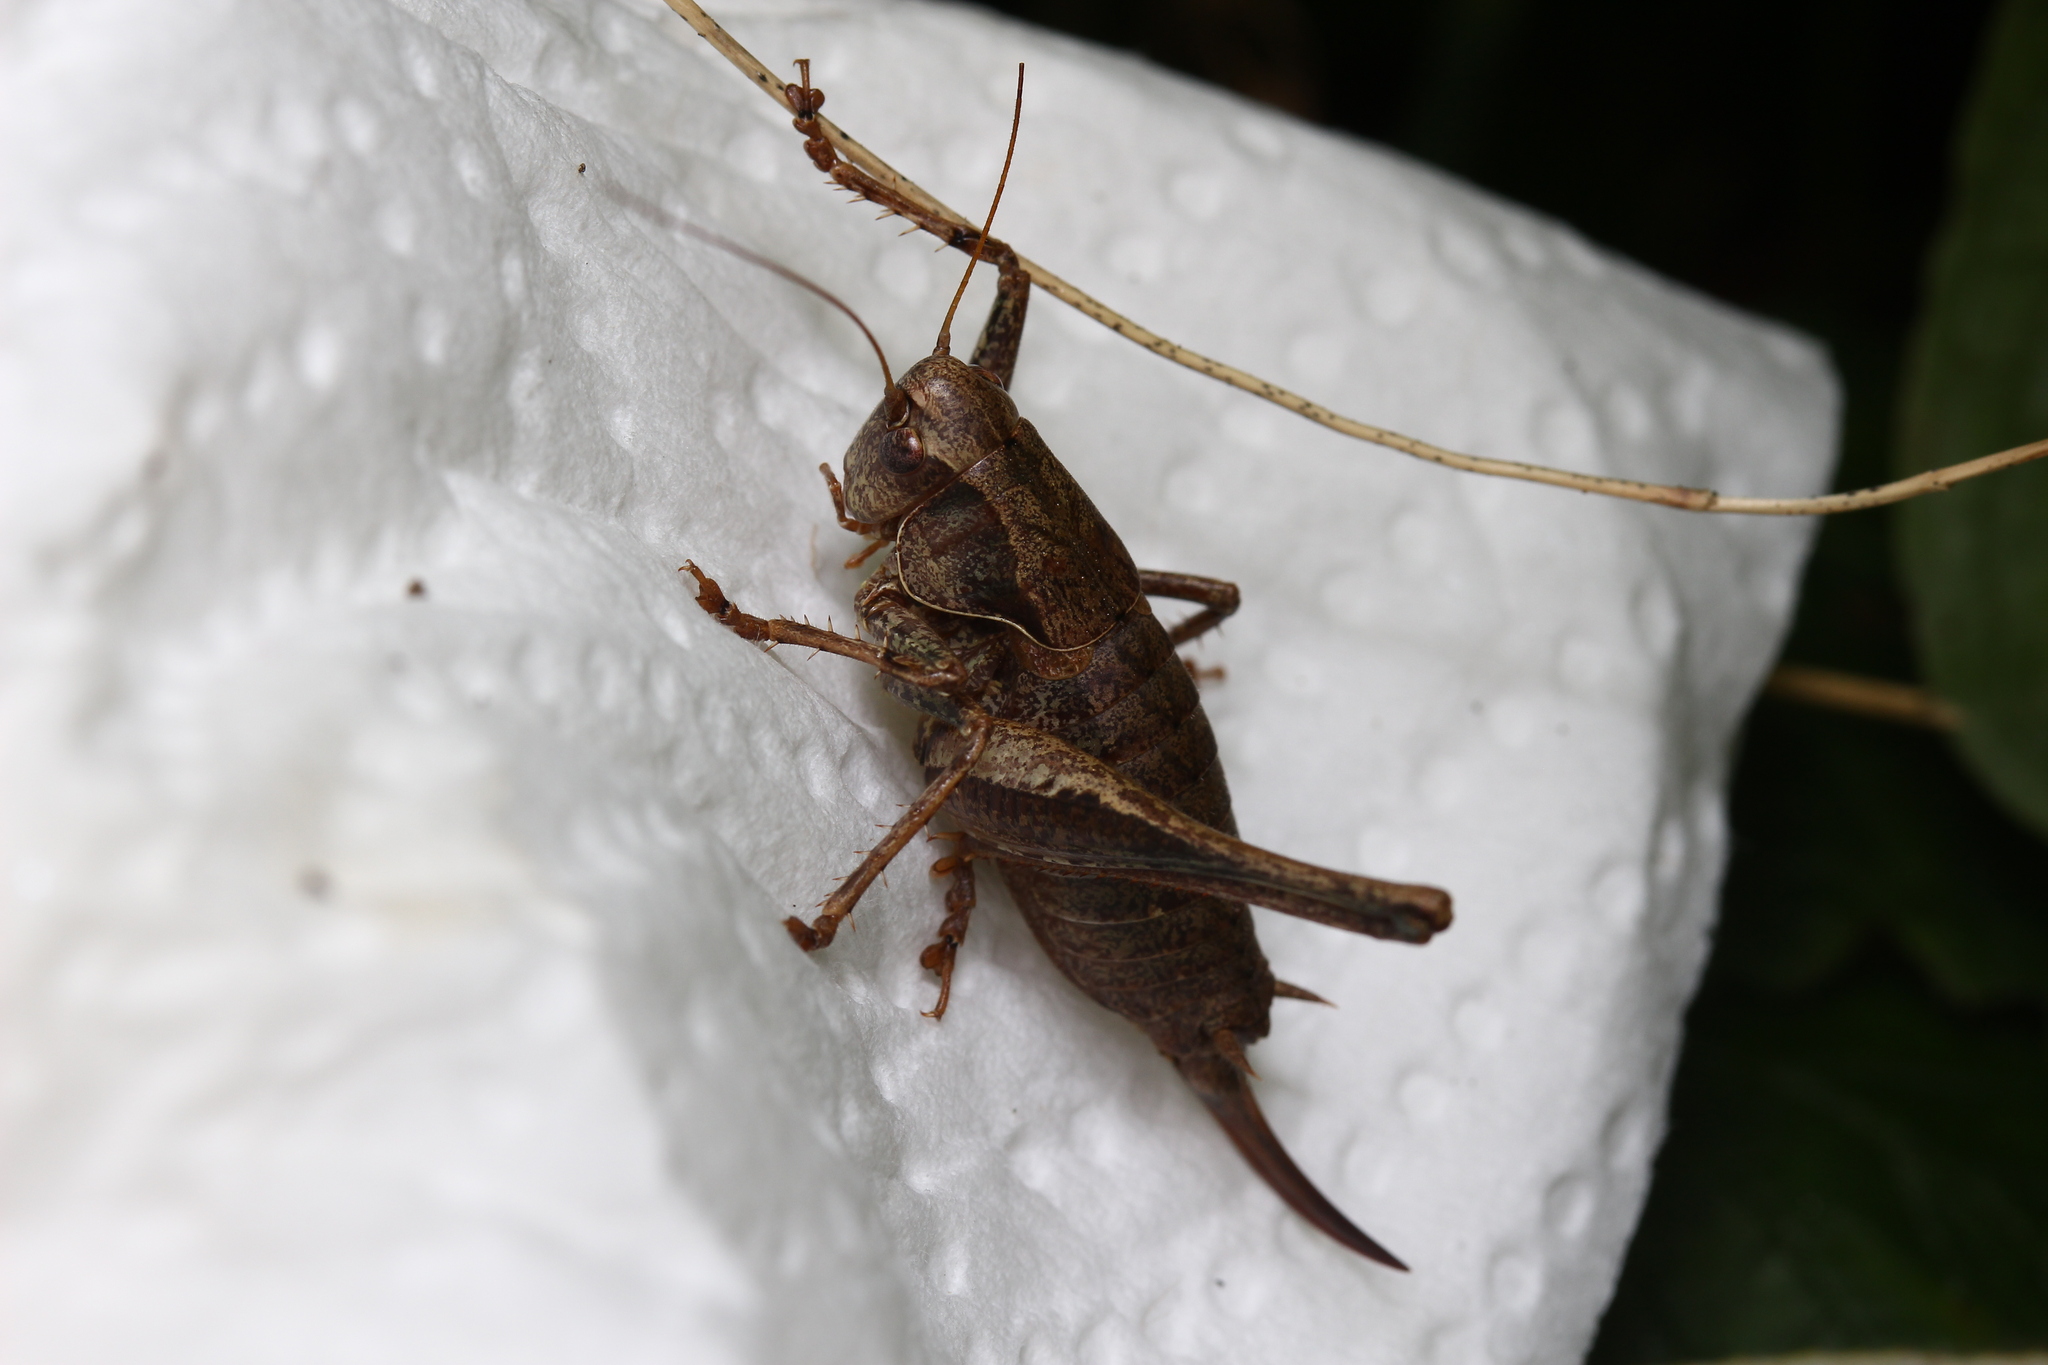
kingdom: Animalia
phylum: Arthropoda
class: Insecta
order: Orthoptera
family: Tettigoniidae
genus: Pholidoptera
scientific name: Pholidoptera griseoaptera
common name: Dark bush-cricket
